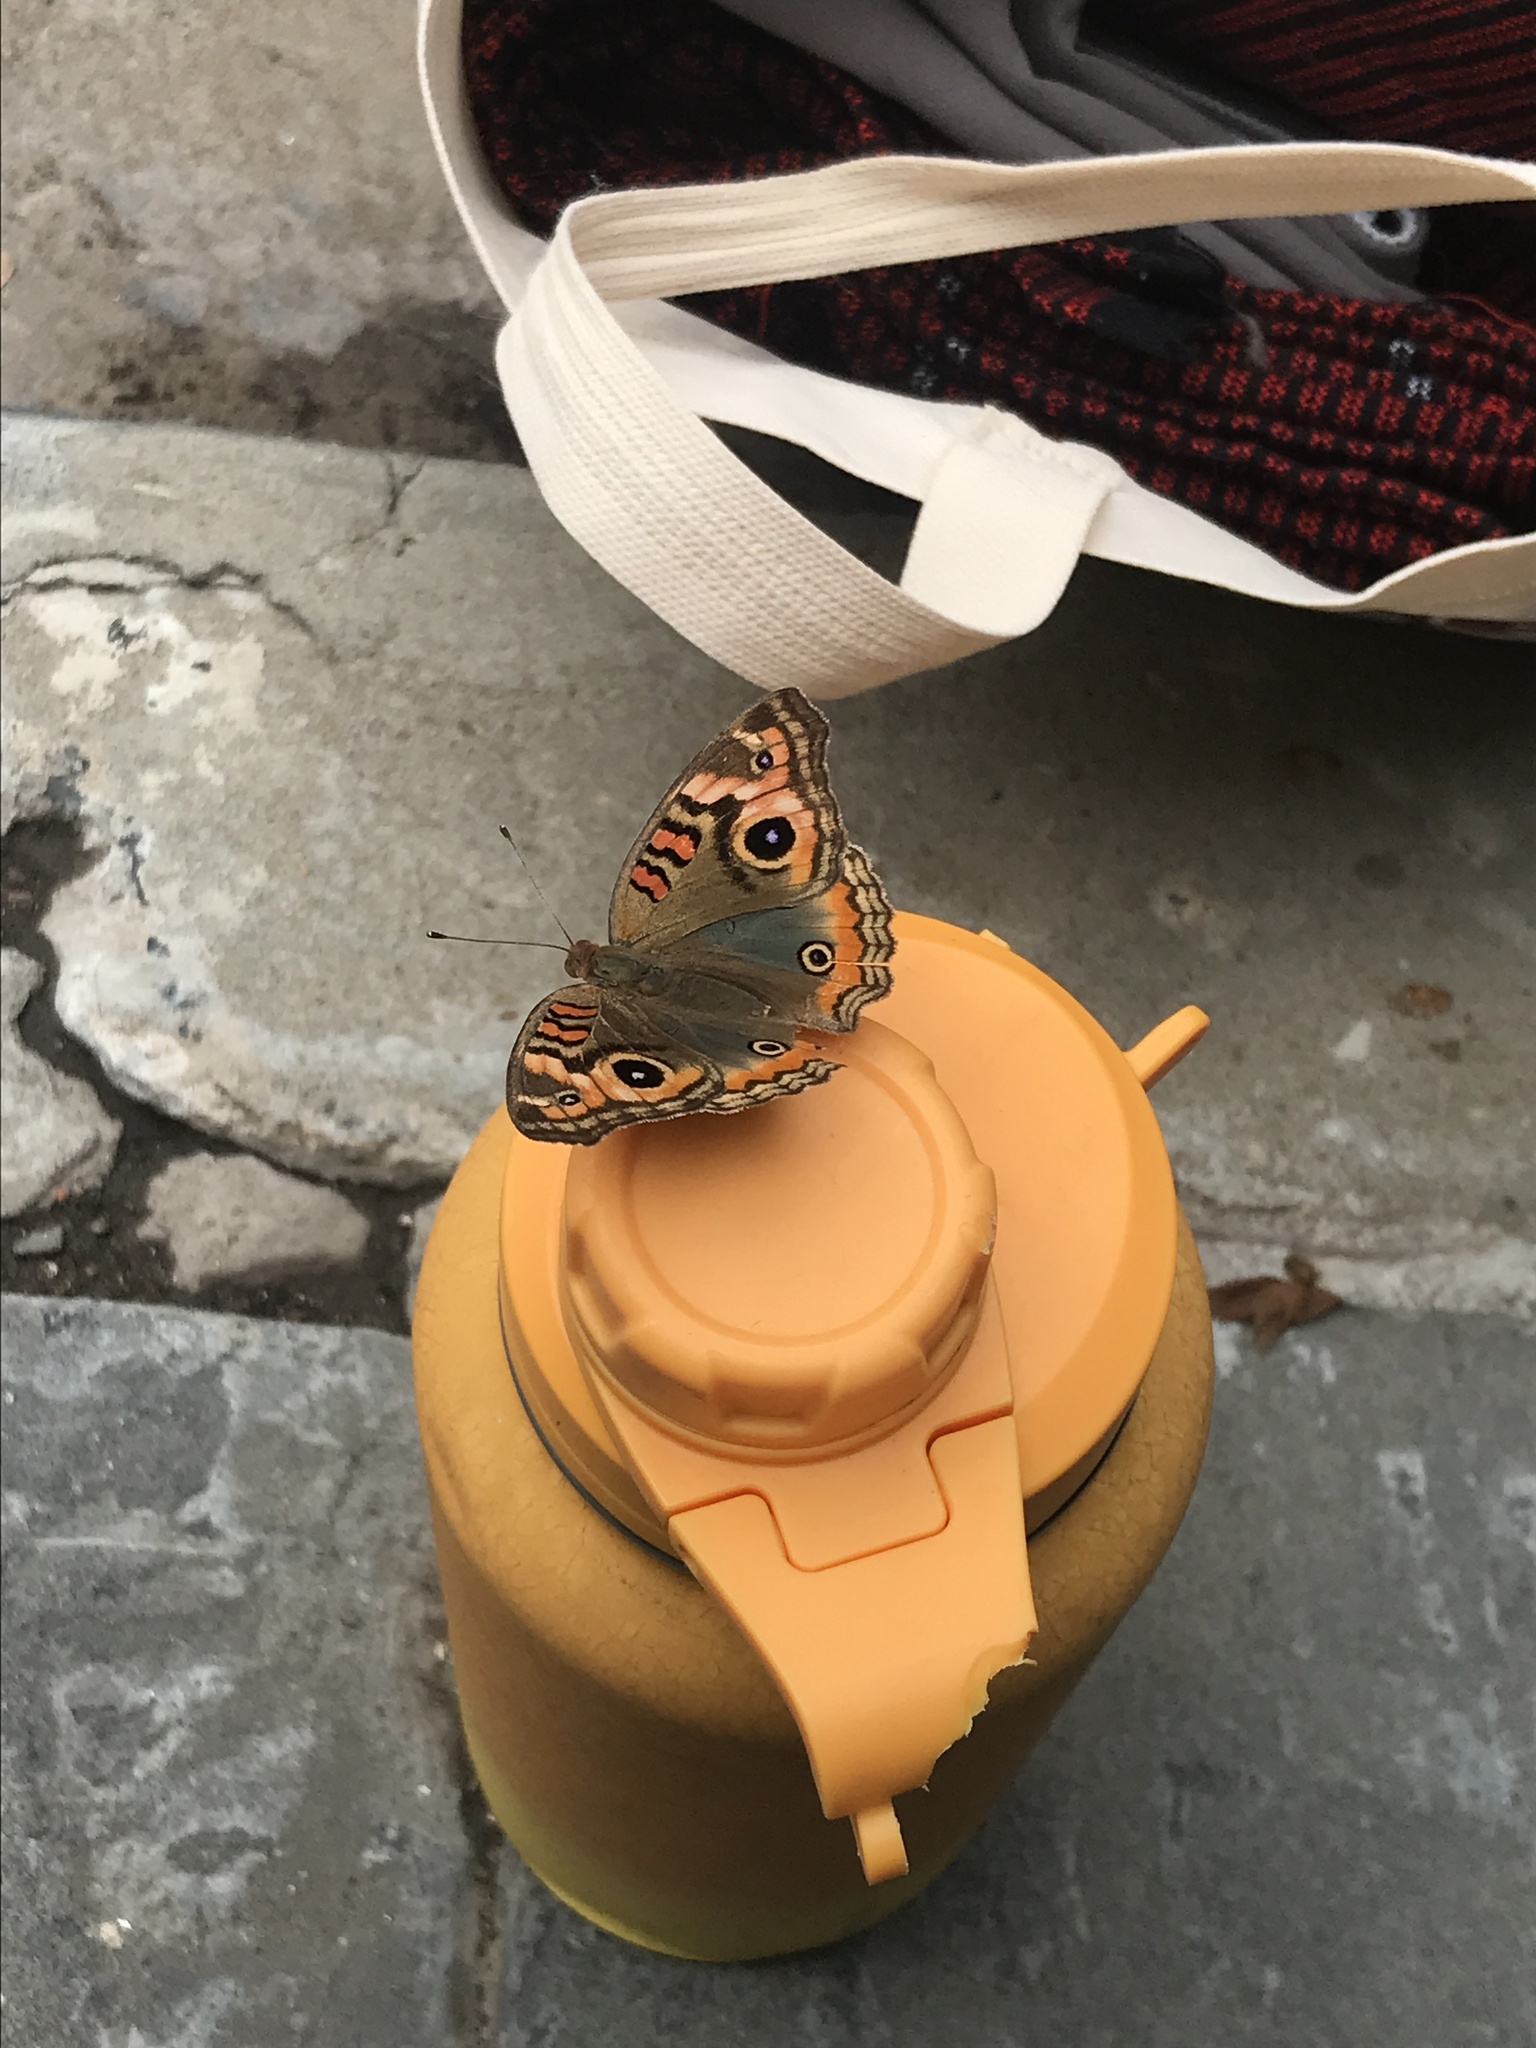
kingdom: Animalia
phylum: Arthropoda
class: Insecta
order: Lepidoptera
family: Nymphalidae
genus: Junonia
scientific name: Junonia lavinia
